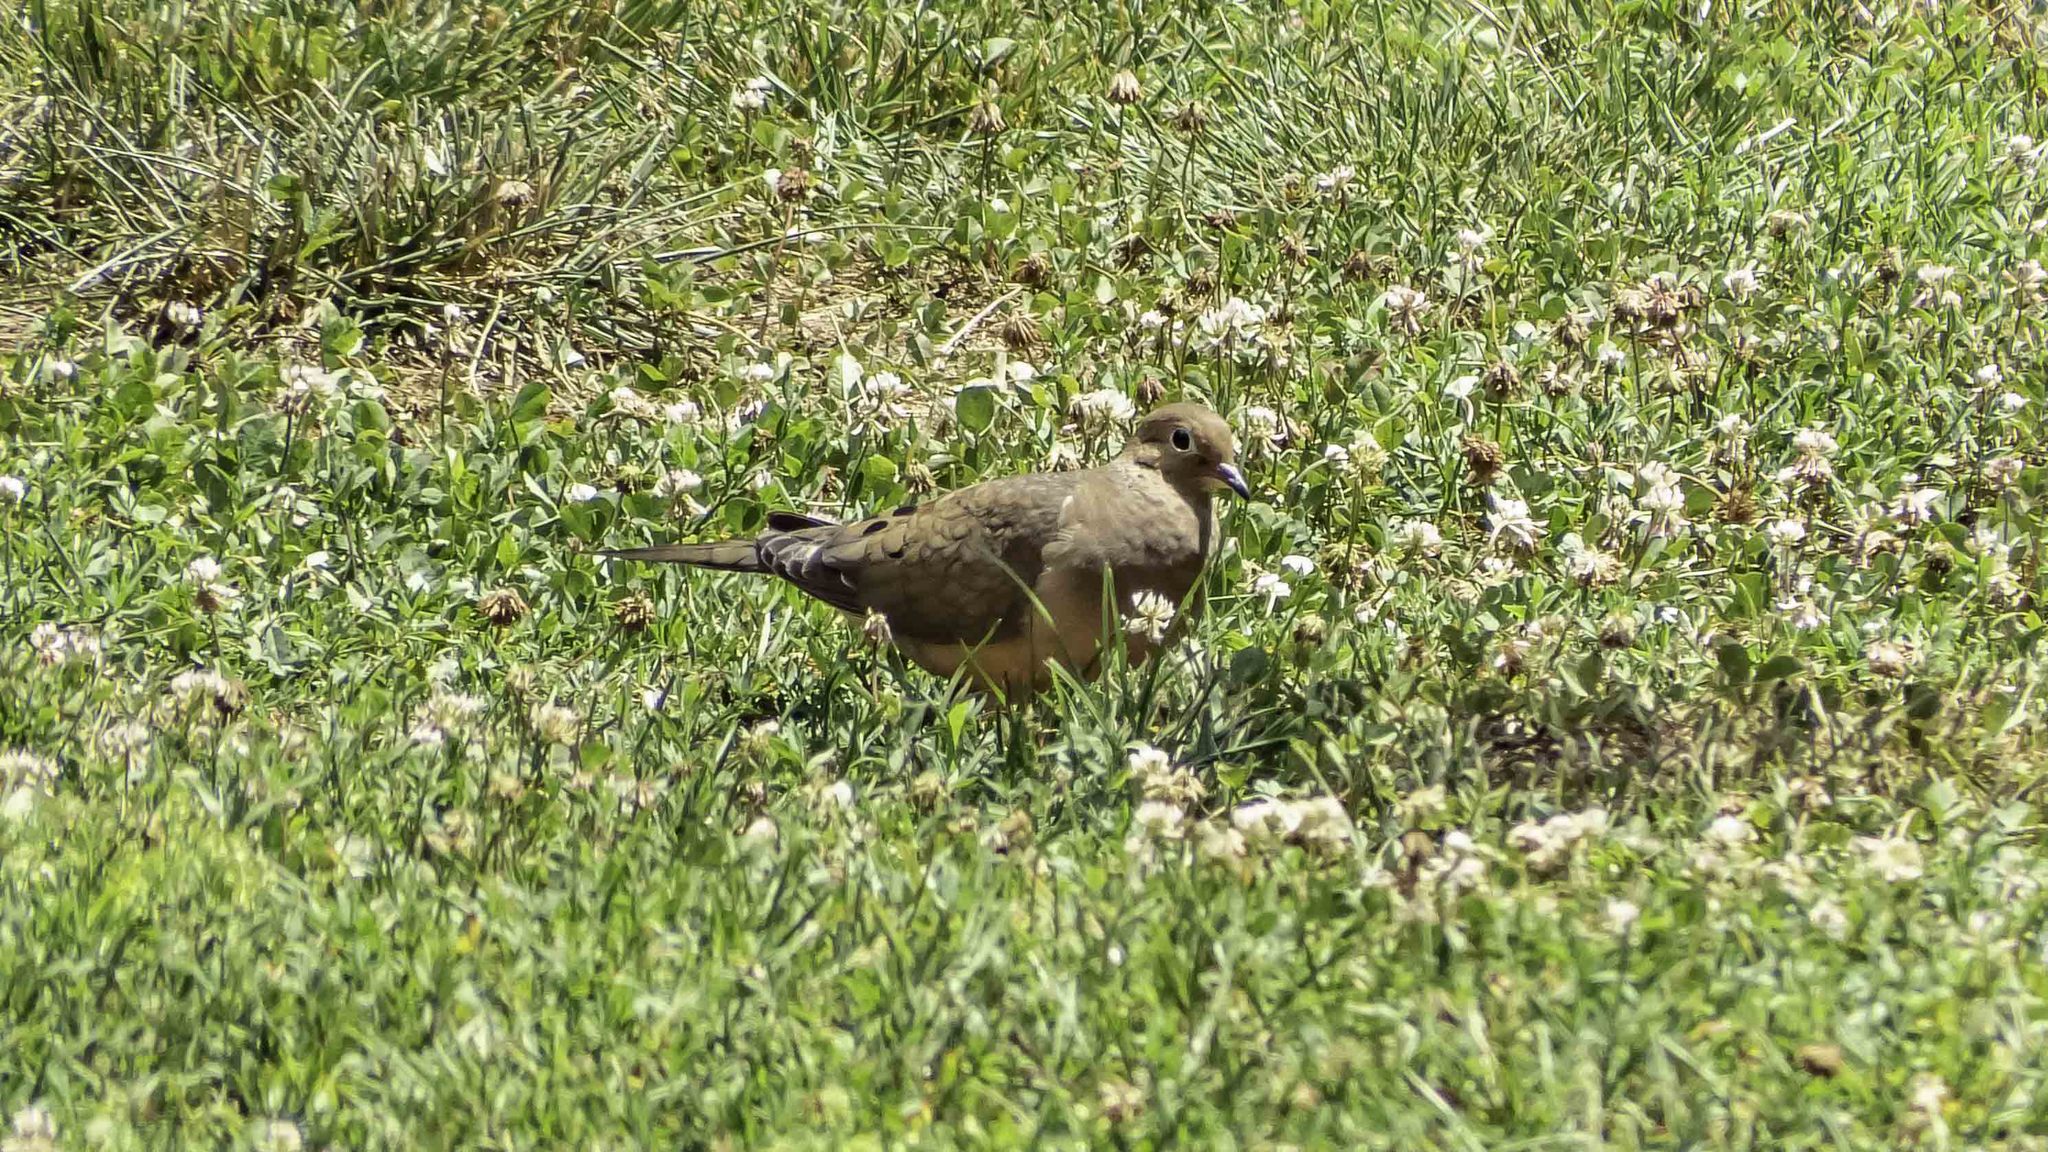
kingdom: Animalia
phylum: Chordata
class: Aves
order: Columbiformes
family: Columbidae
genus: Zenaida
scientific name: Zenaida macroura
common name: Mourning dove
